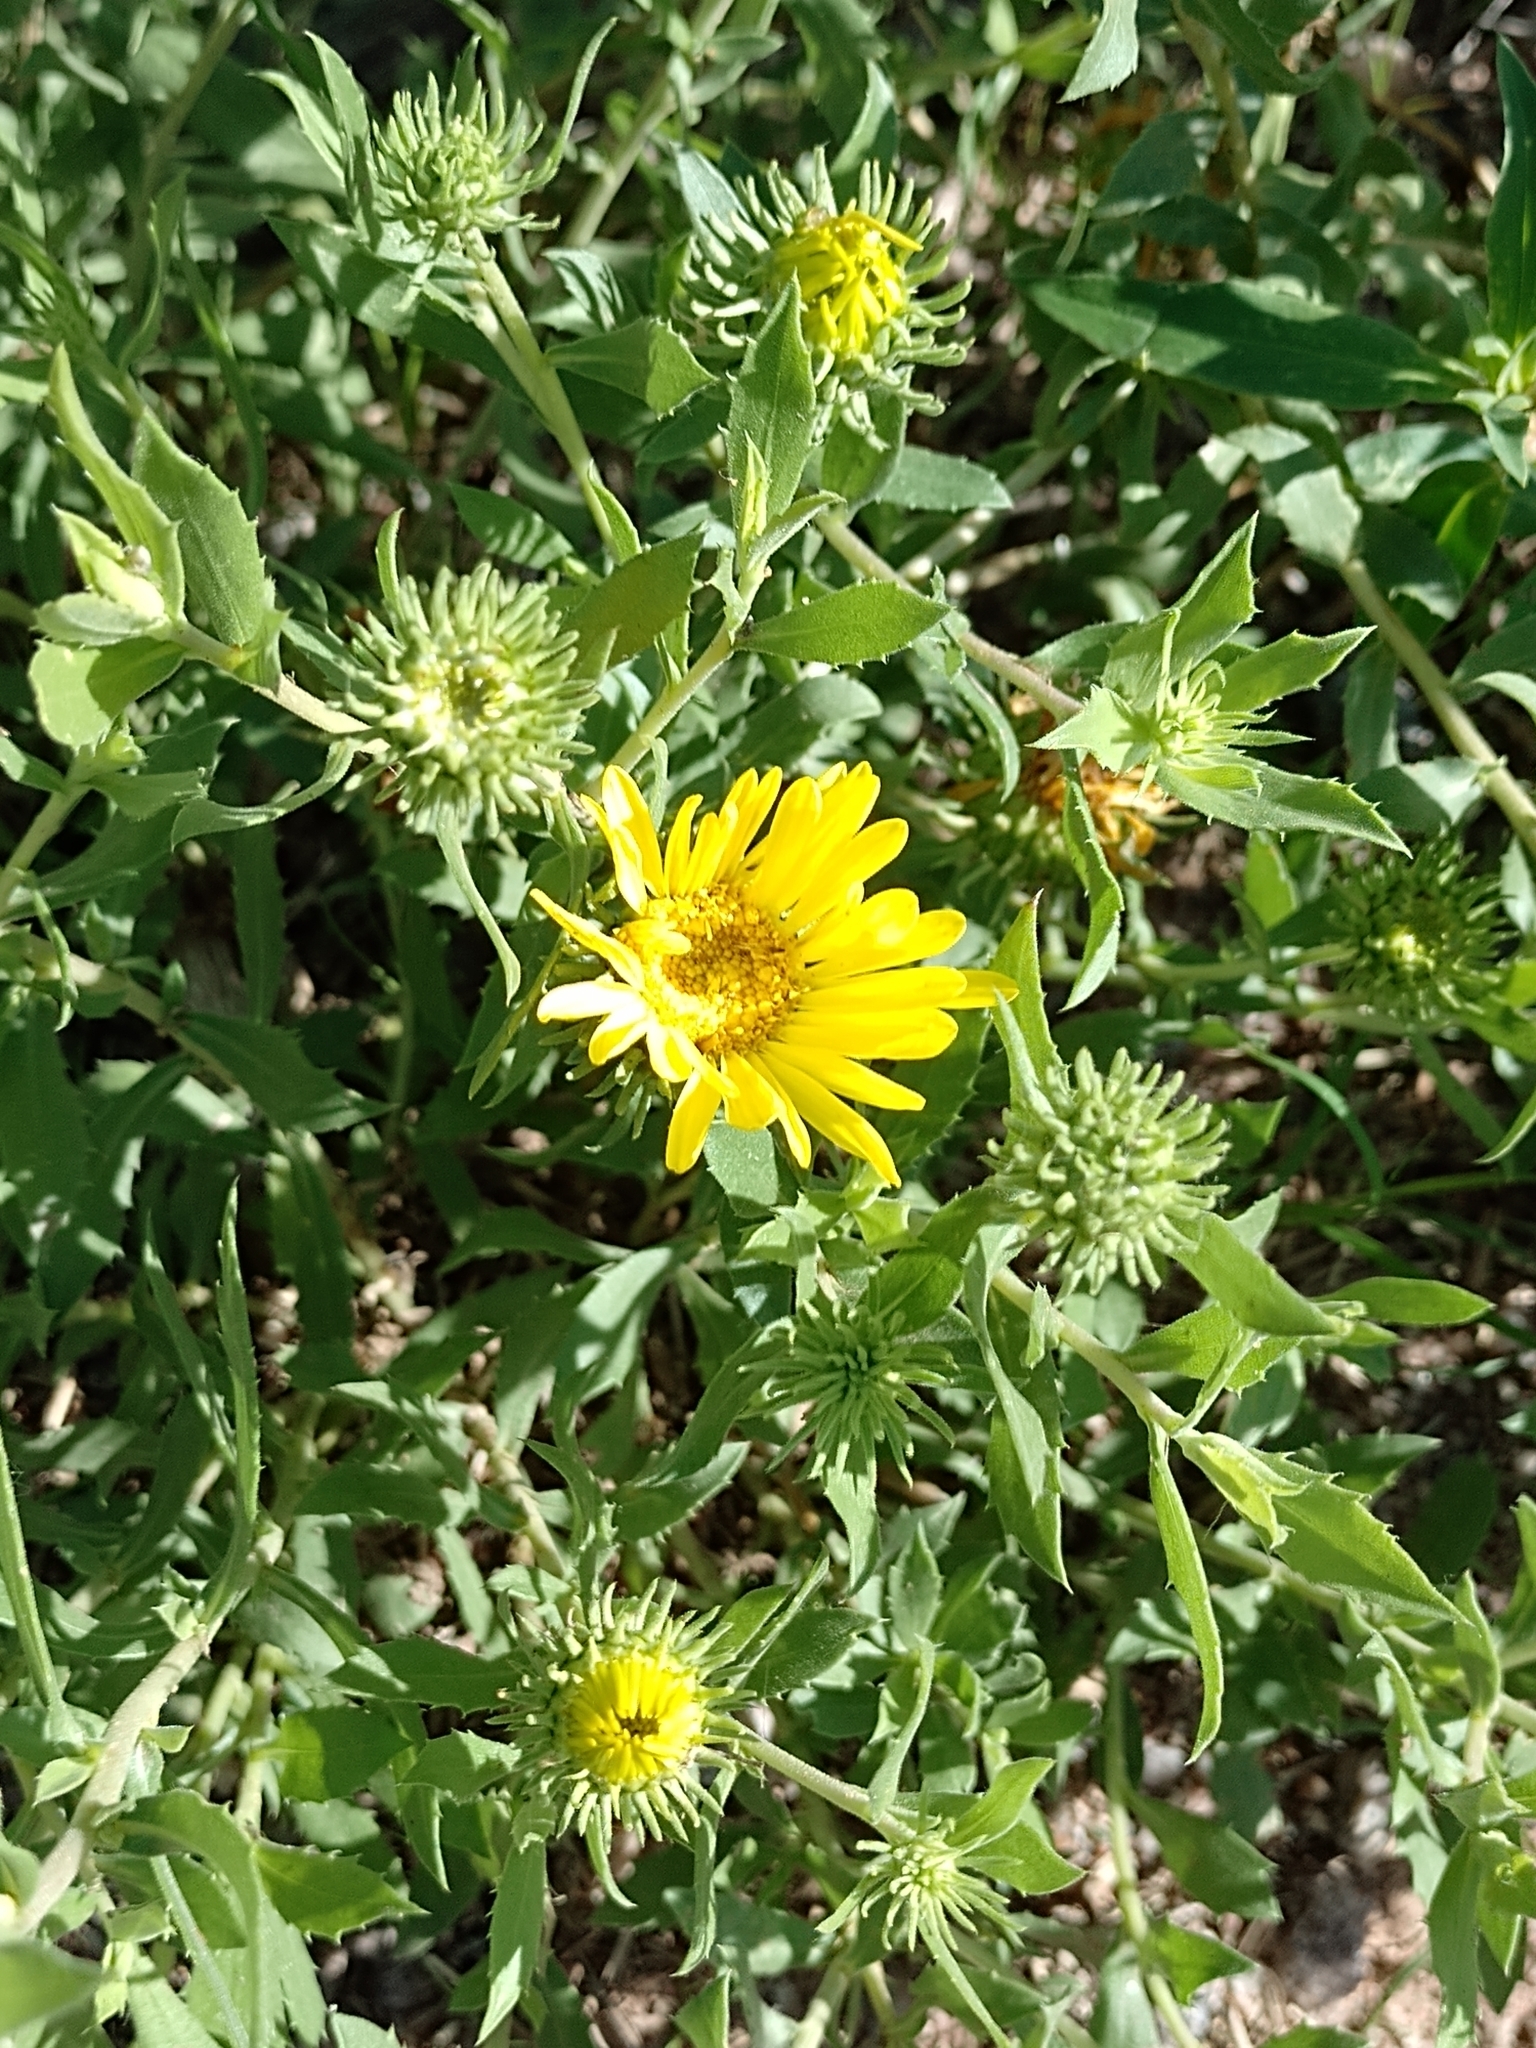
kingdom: Plantae
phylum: Tracheophyta
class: Magnoliopsida
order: Asterales
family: Asteraceae
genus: Grindelia
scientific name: Grindelia cabrerae
